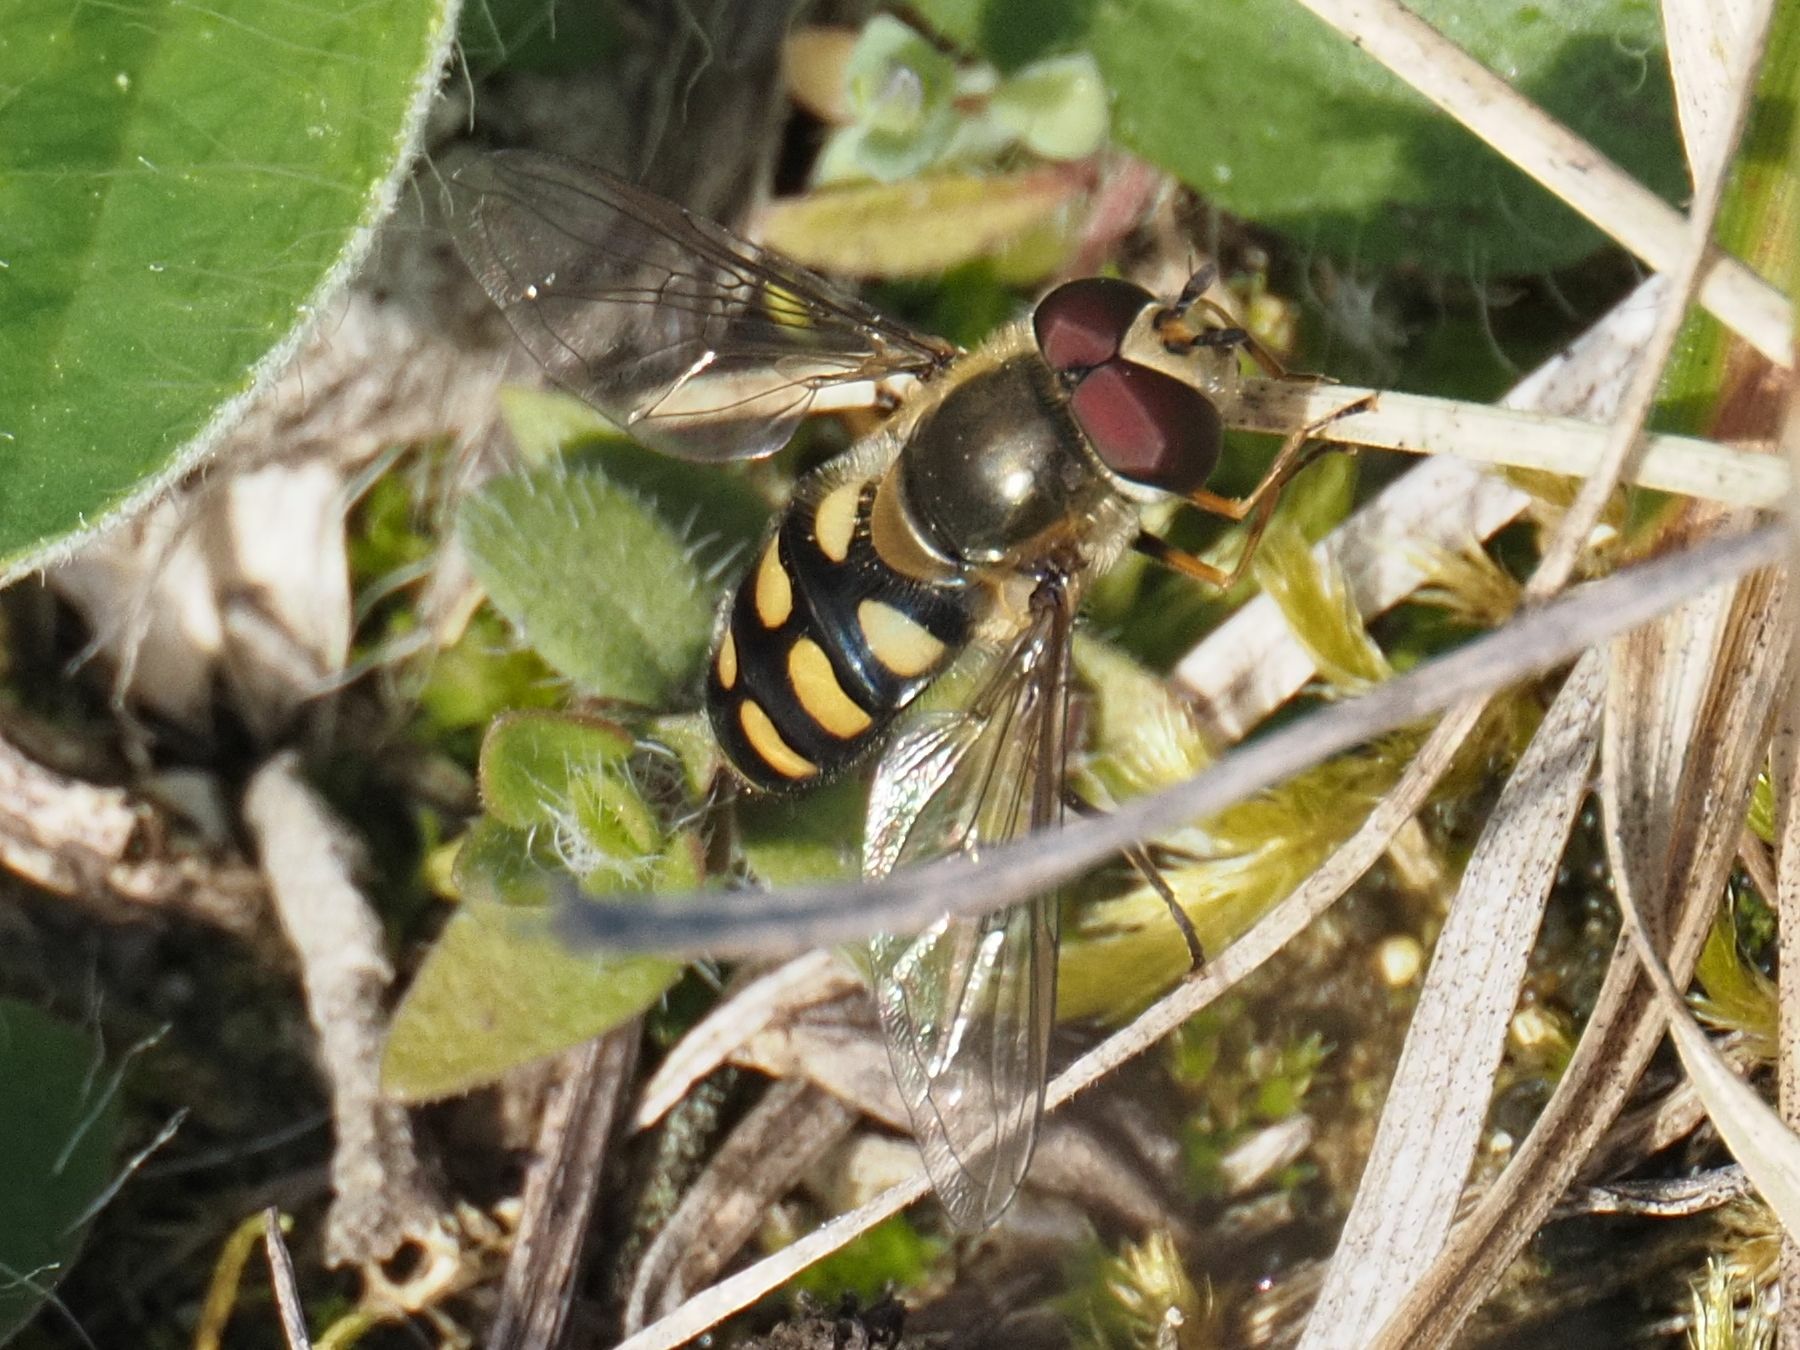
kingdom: Animalia
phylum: Arthropoda
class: Insecta
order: Diptera
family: Syrphidae
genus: Eupeodes
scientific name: Eupeodes luniger
